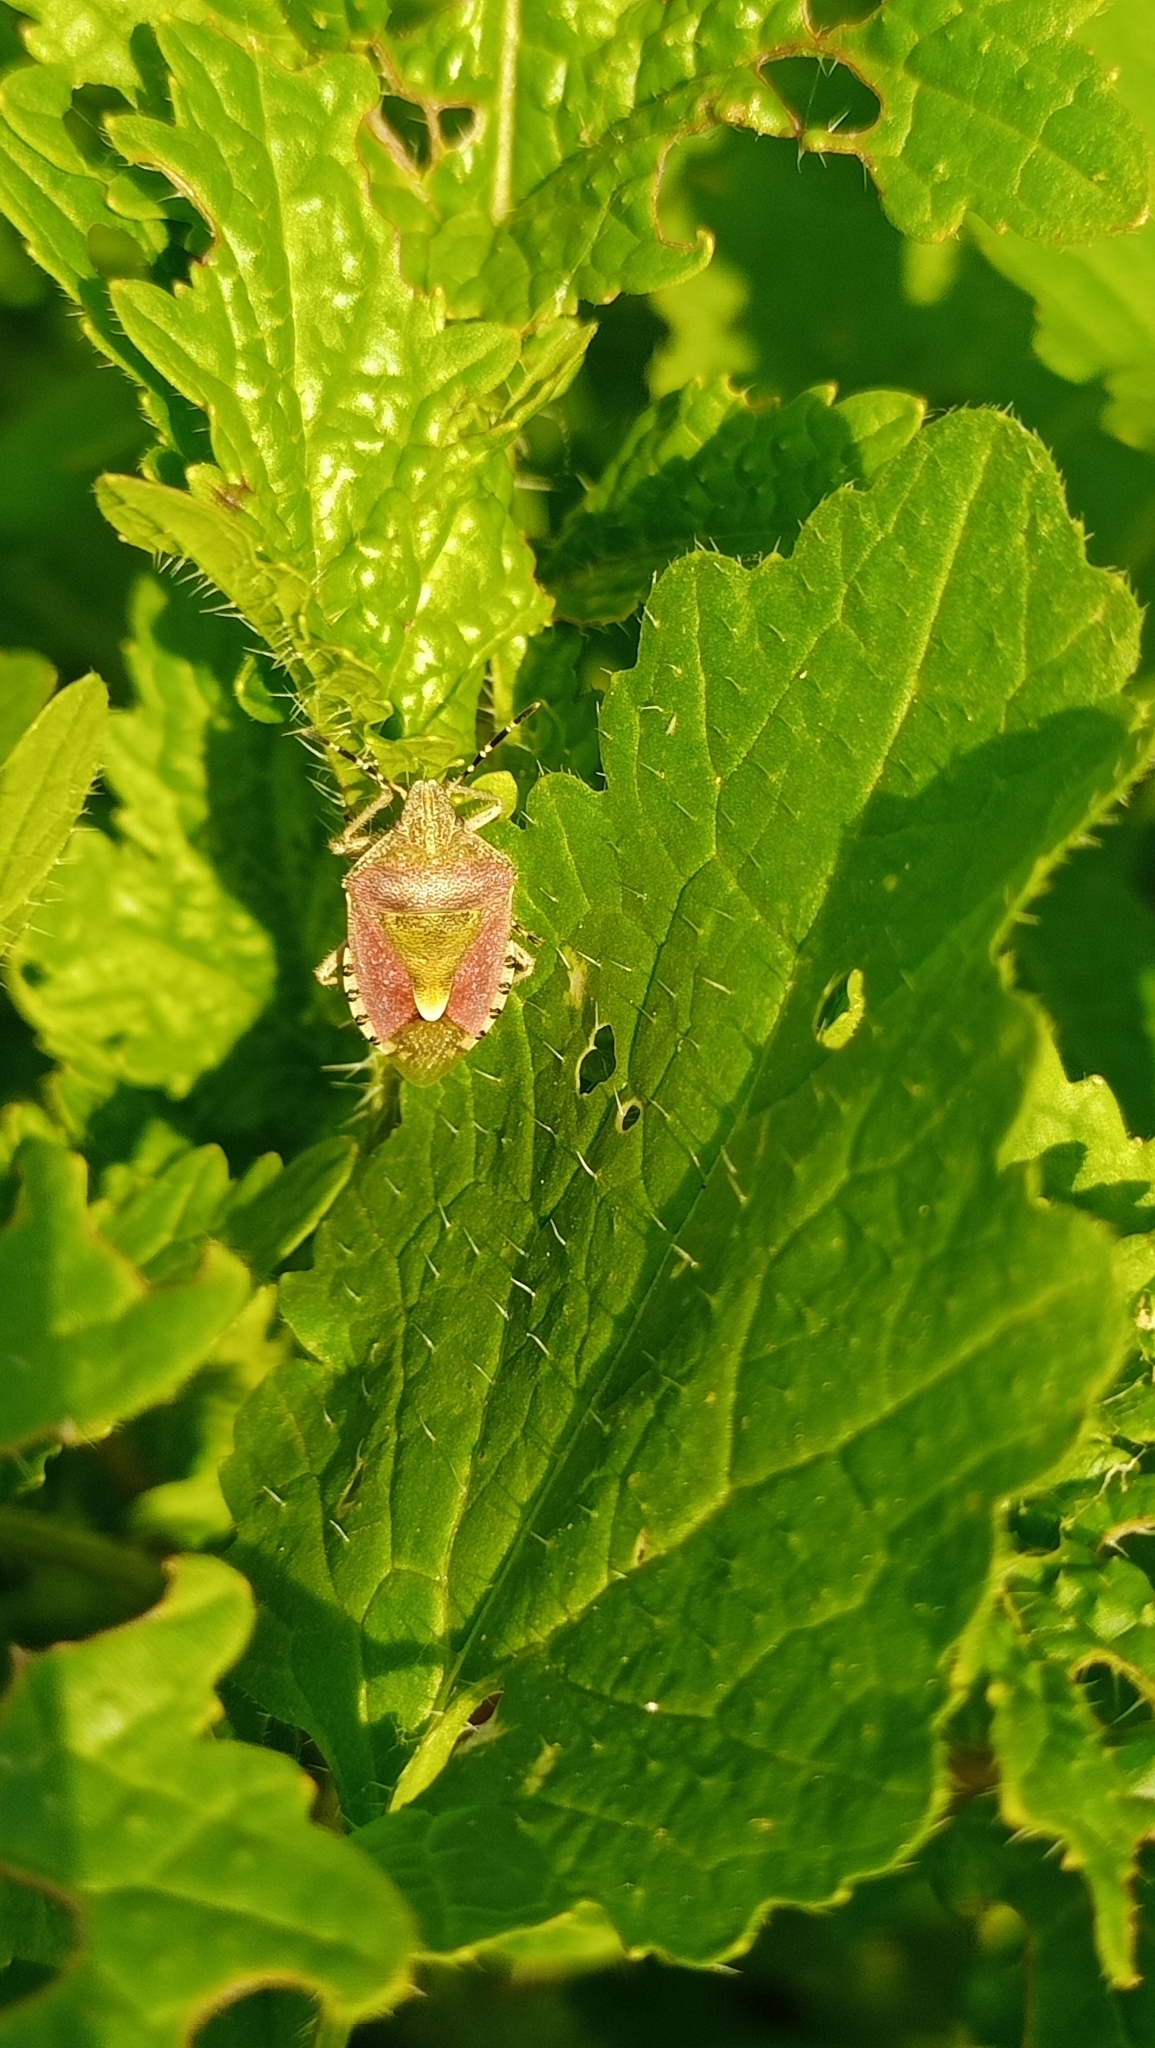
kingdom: Animalia
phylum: Arthropoda
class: Insecta
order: Hemiptera
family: Pentatomidae
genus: Dolycoris
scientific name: Dolycoris baccarum
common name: Sloe bug
